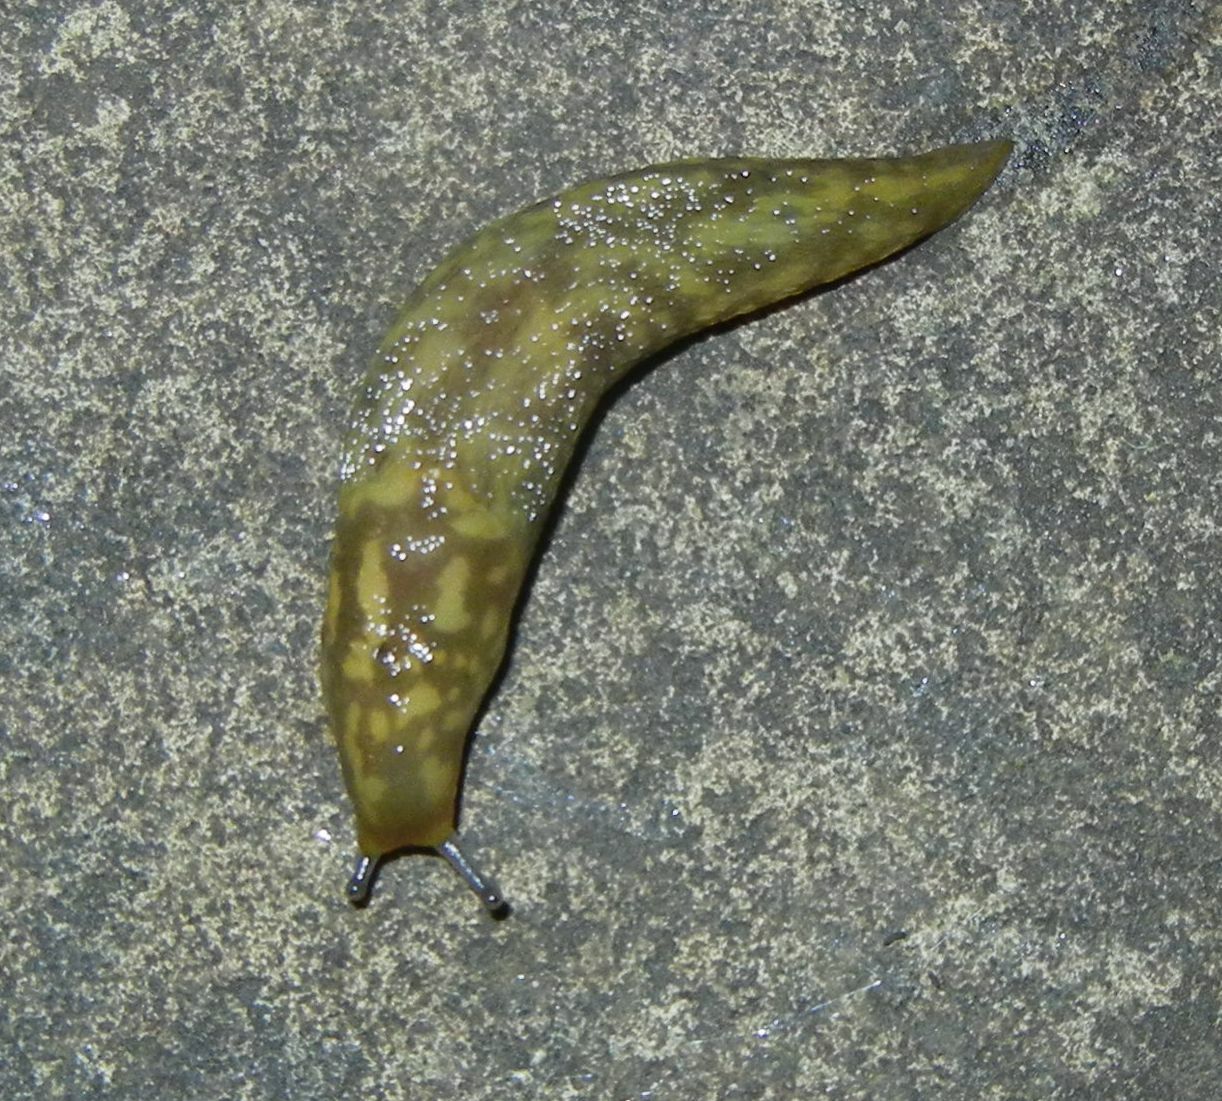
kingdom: Animalia
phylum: Mollusca
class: Gastropoda
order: Stylommatophora
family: Limacidae
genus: Limacus
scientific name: Limacus maculatus
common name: Irish yellow slug
